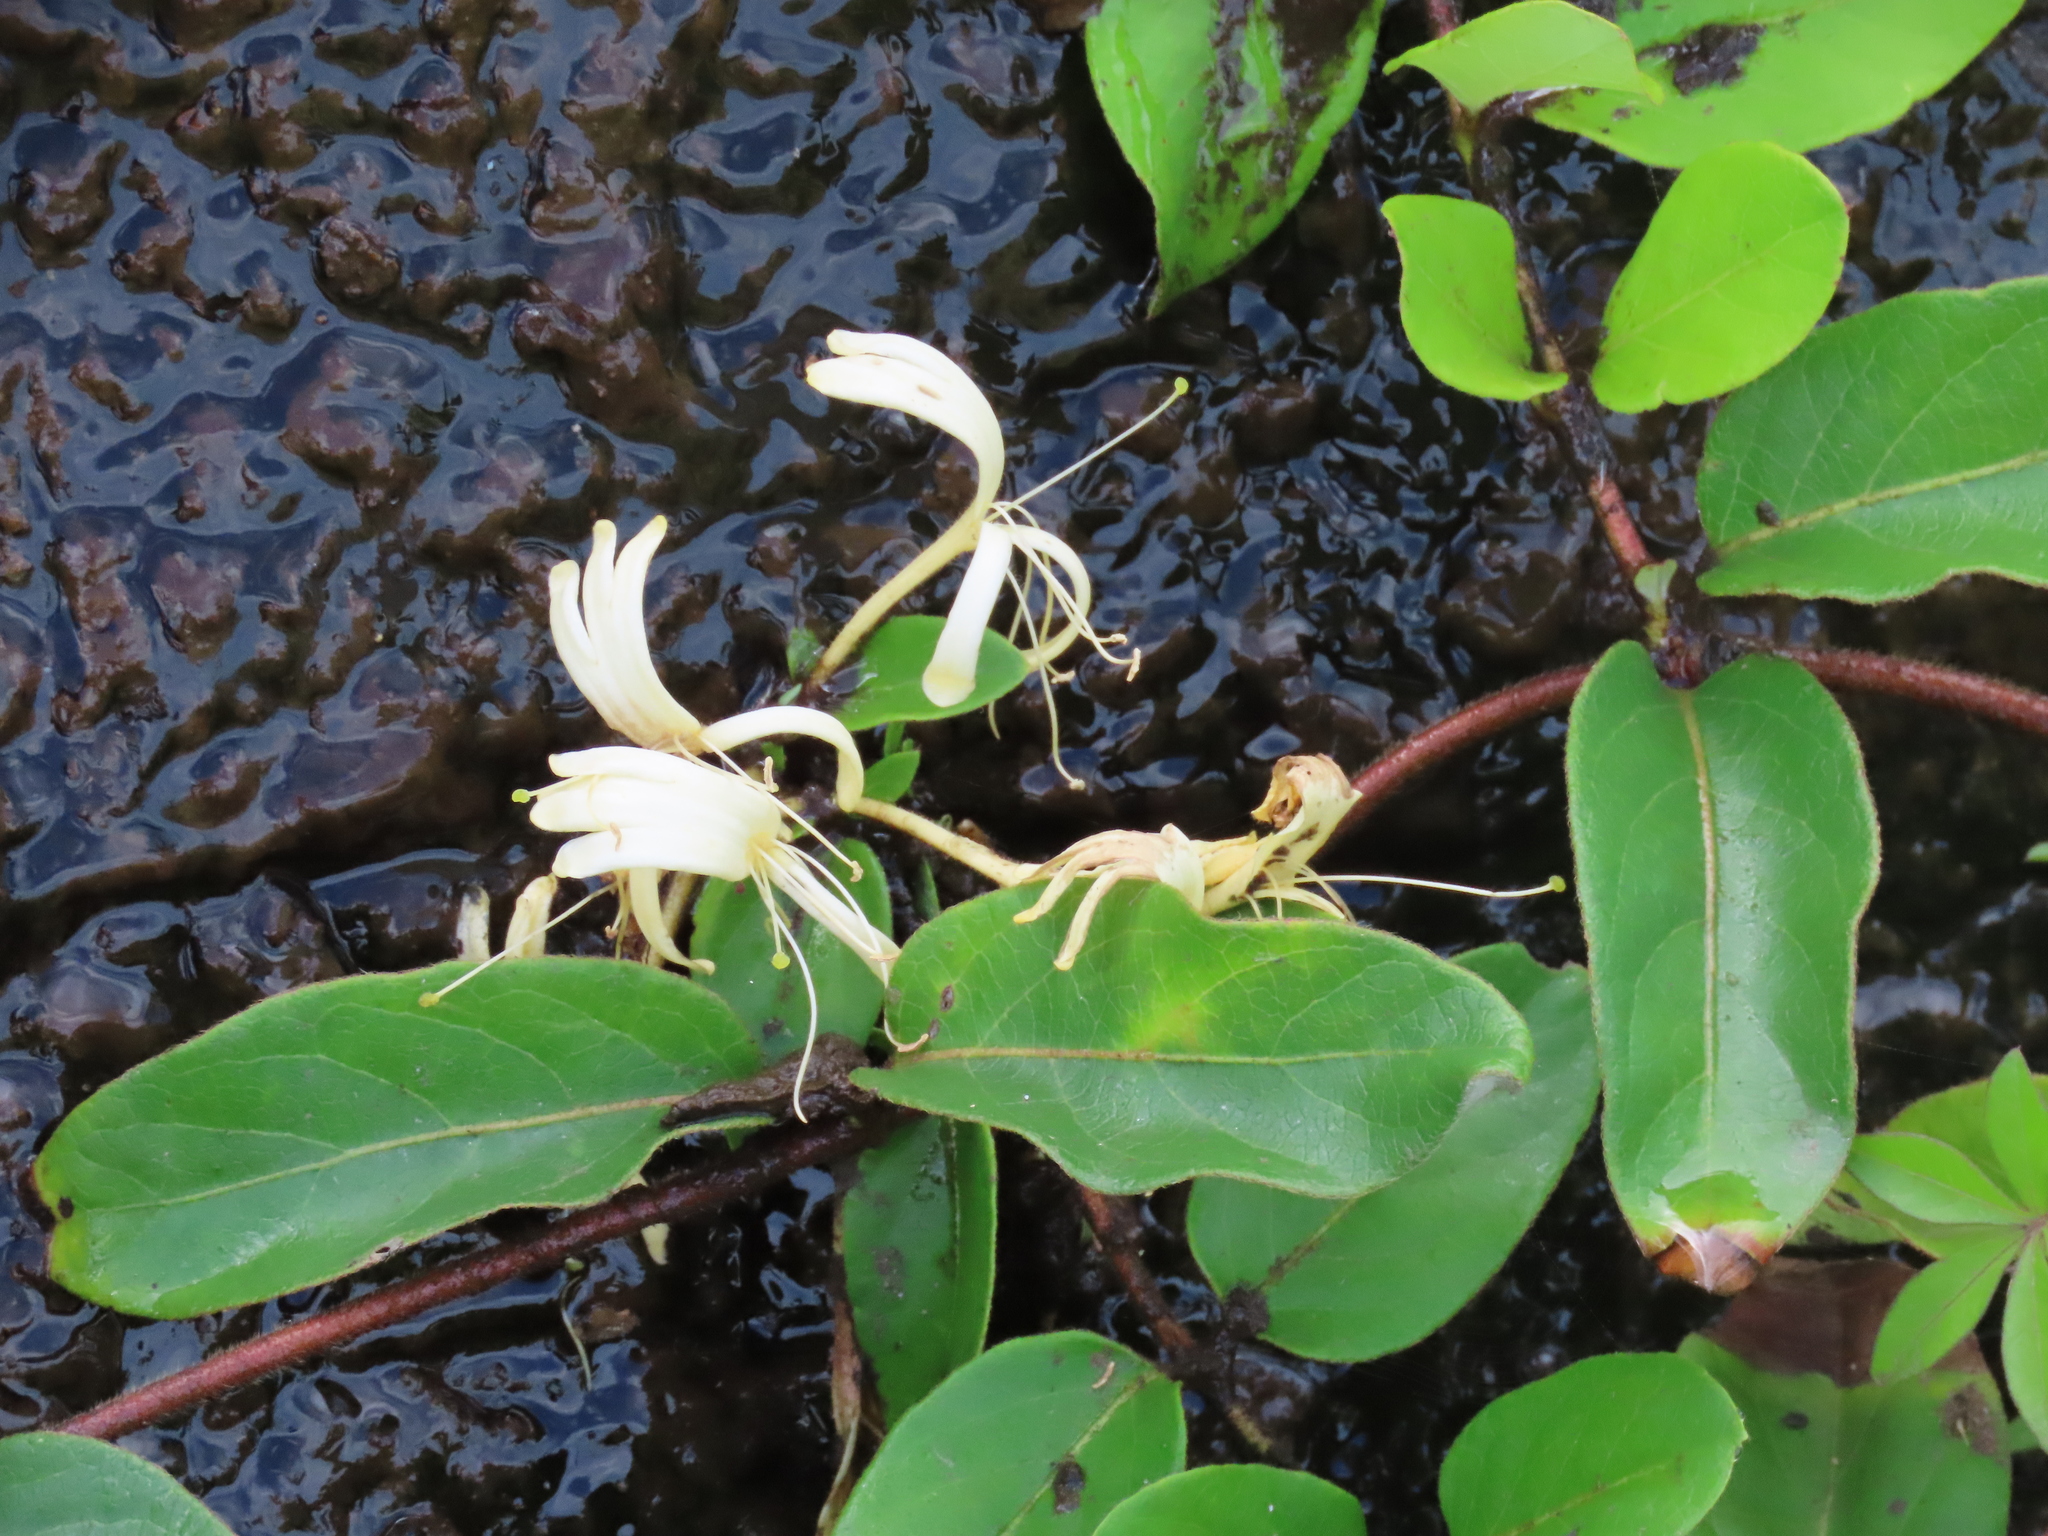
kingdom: Plantae
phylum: Tracheophyta
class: Magnoliopsida
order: Dipsacales
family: Caprifoliaceae
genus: Lonicera
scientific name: Lonicera japonica
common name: Japanese honeysuckle
